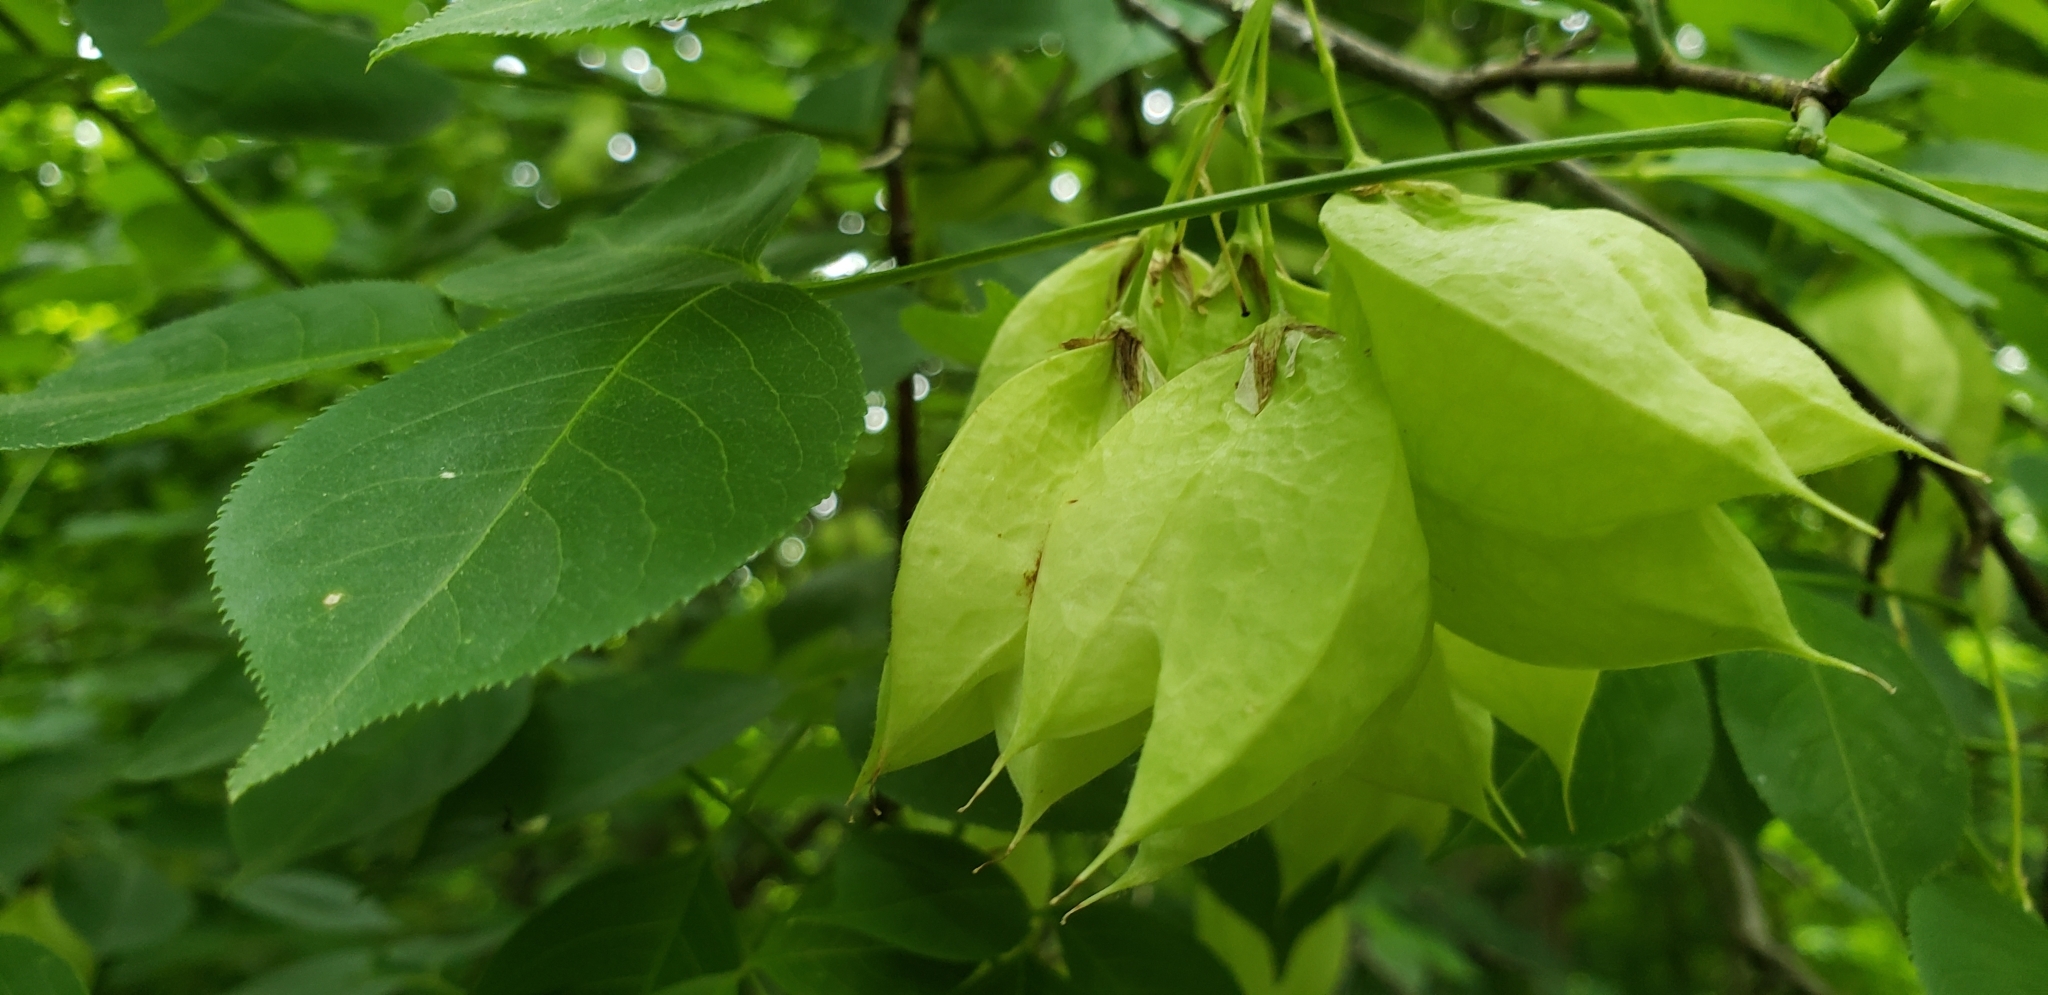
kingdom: Plantae
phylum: Tracheophyta
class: Magnoliopsida
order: Crossosomatales
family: Staphyleaceae
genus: Staphylea
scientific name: Staphylea trifolia
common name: American bladdernut
